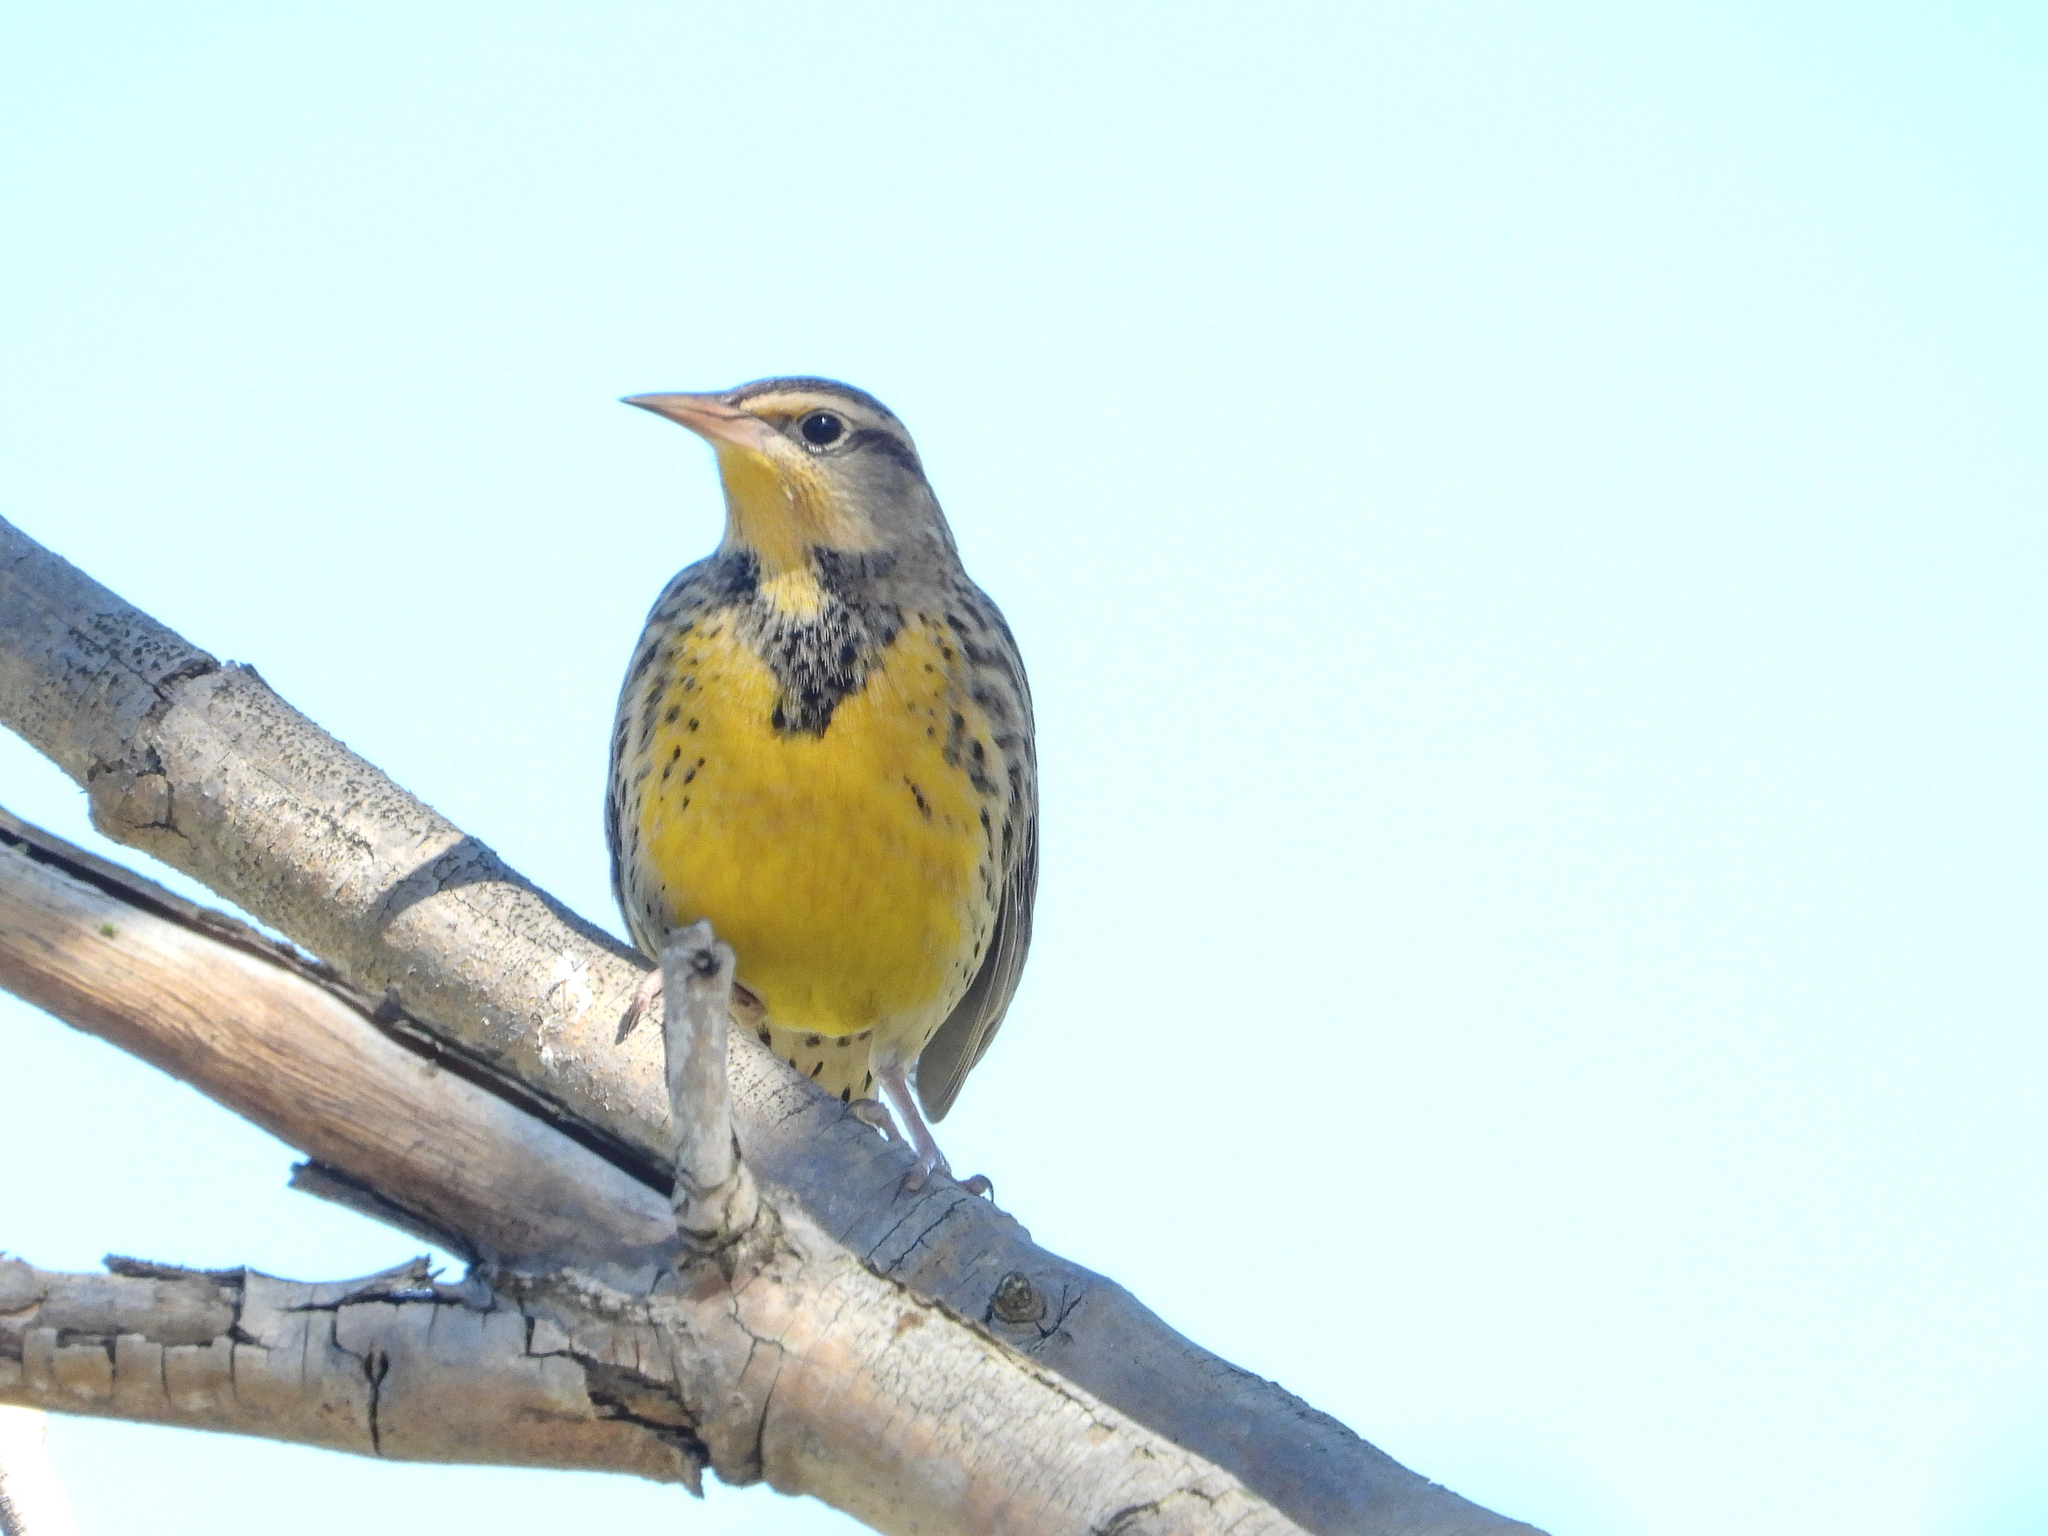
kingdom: Animalia
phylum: Chordata
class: Aves
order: Passeriformes
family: Icteridae
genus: Sturnella
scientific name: Sturnella neglecta
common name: Western meadowlark
